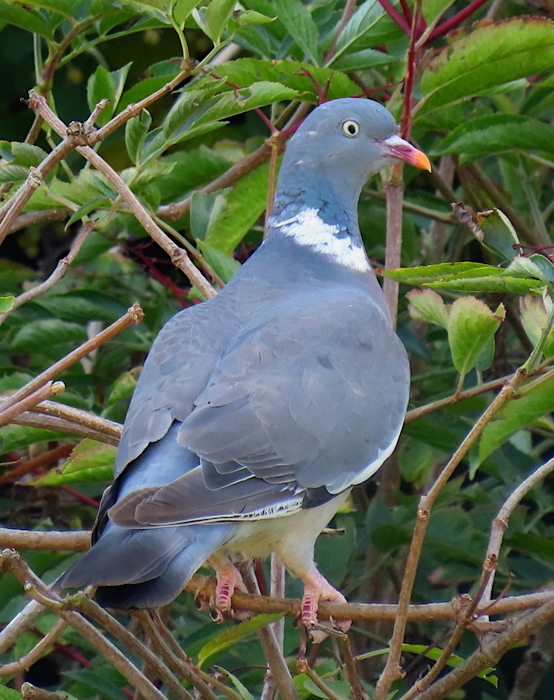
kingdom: Animalia
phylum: Chordata
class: Aves
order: Columbiformes
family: Columbidae
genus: Columba
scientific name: Columba palumbus
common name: Common wood pigeon
